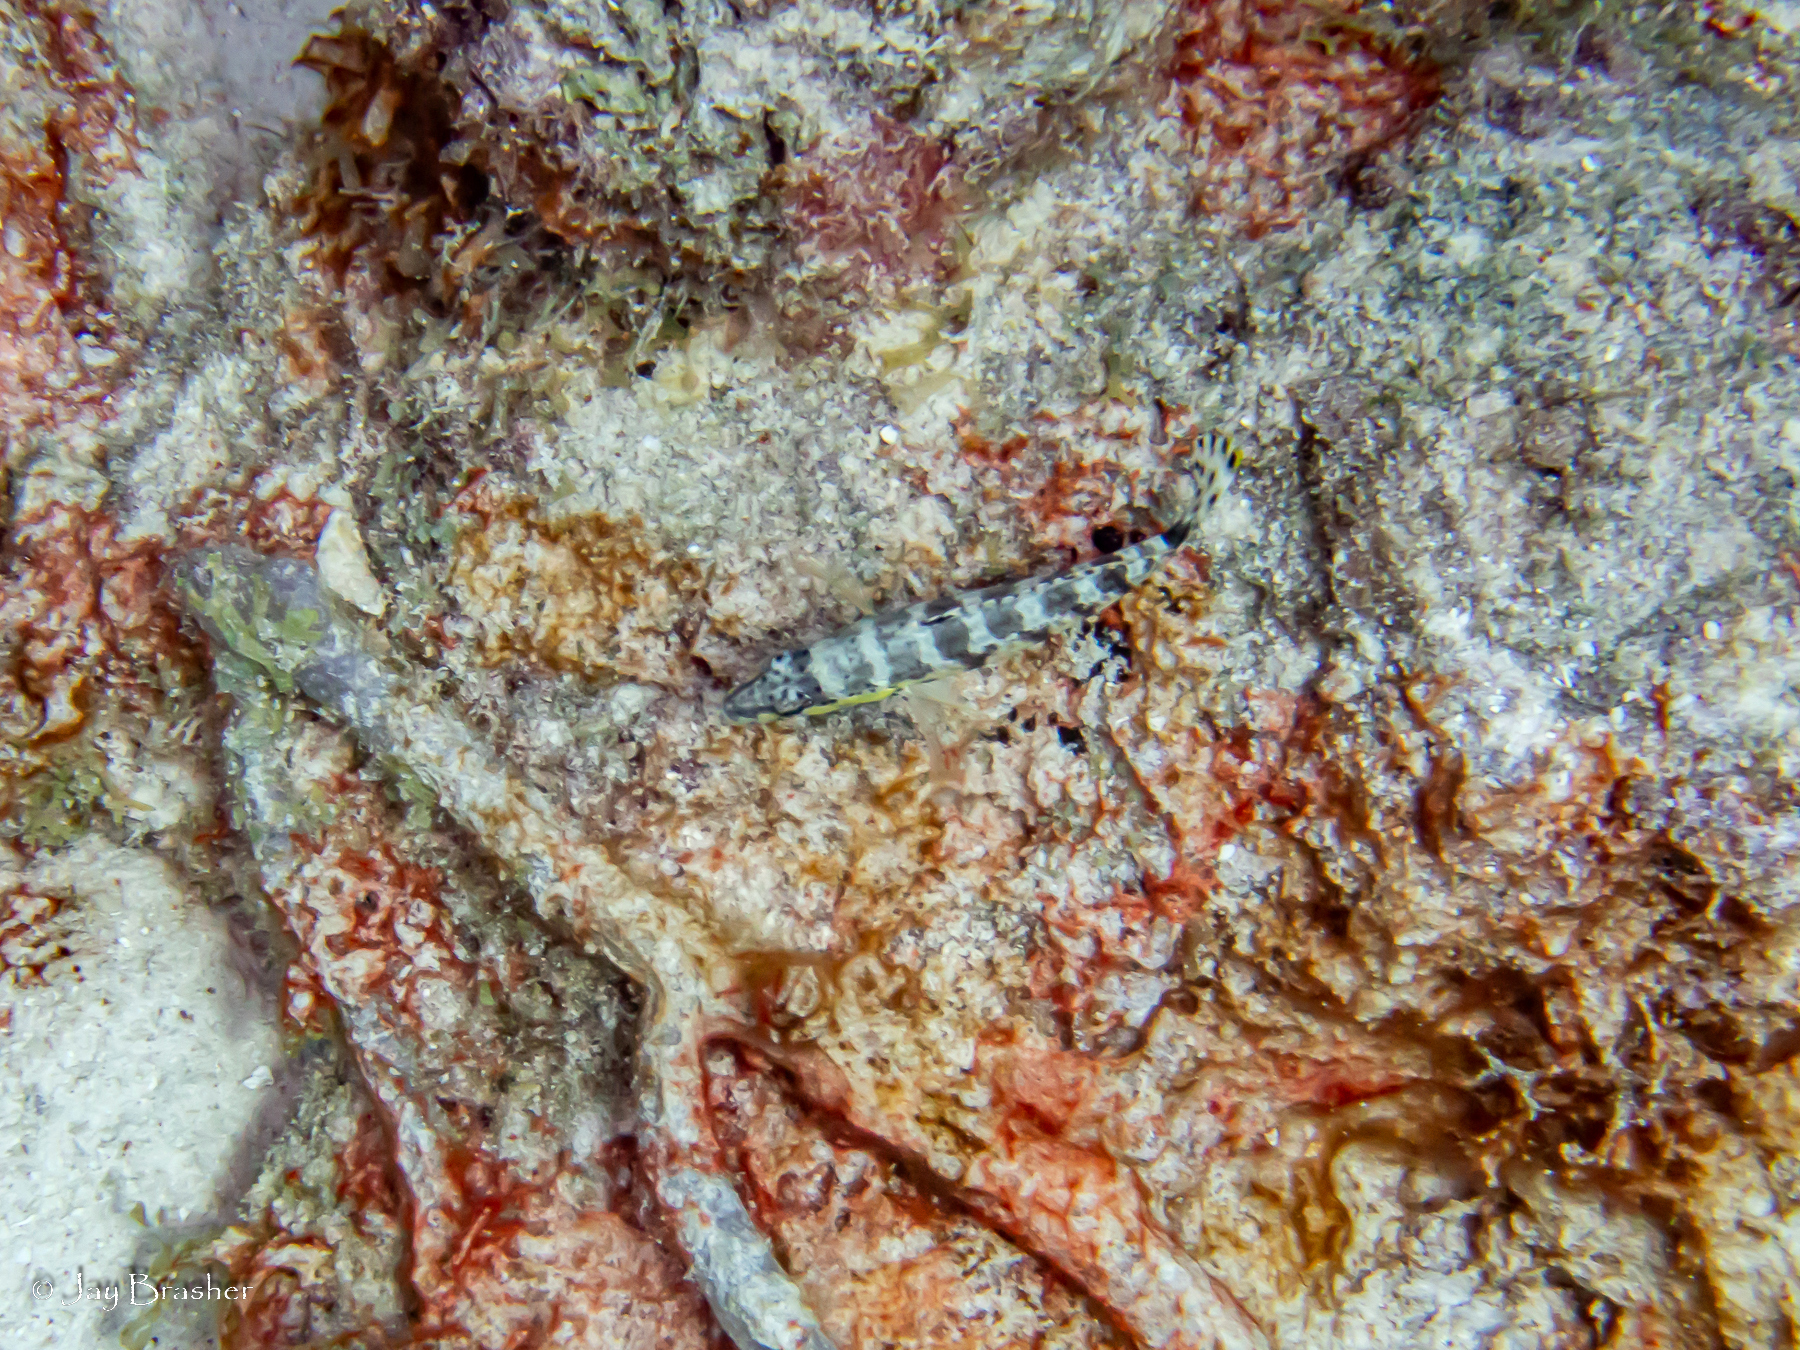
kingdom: Animalia
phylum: Chordata
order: Perciformes
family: Serranidae
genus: Serranus
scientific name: Serranus tigrinus
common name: Harlequin bass
